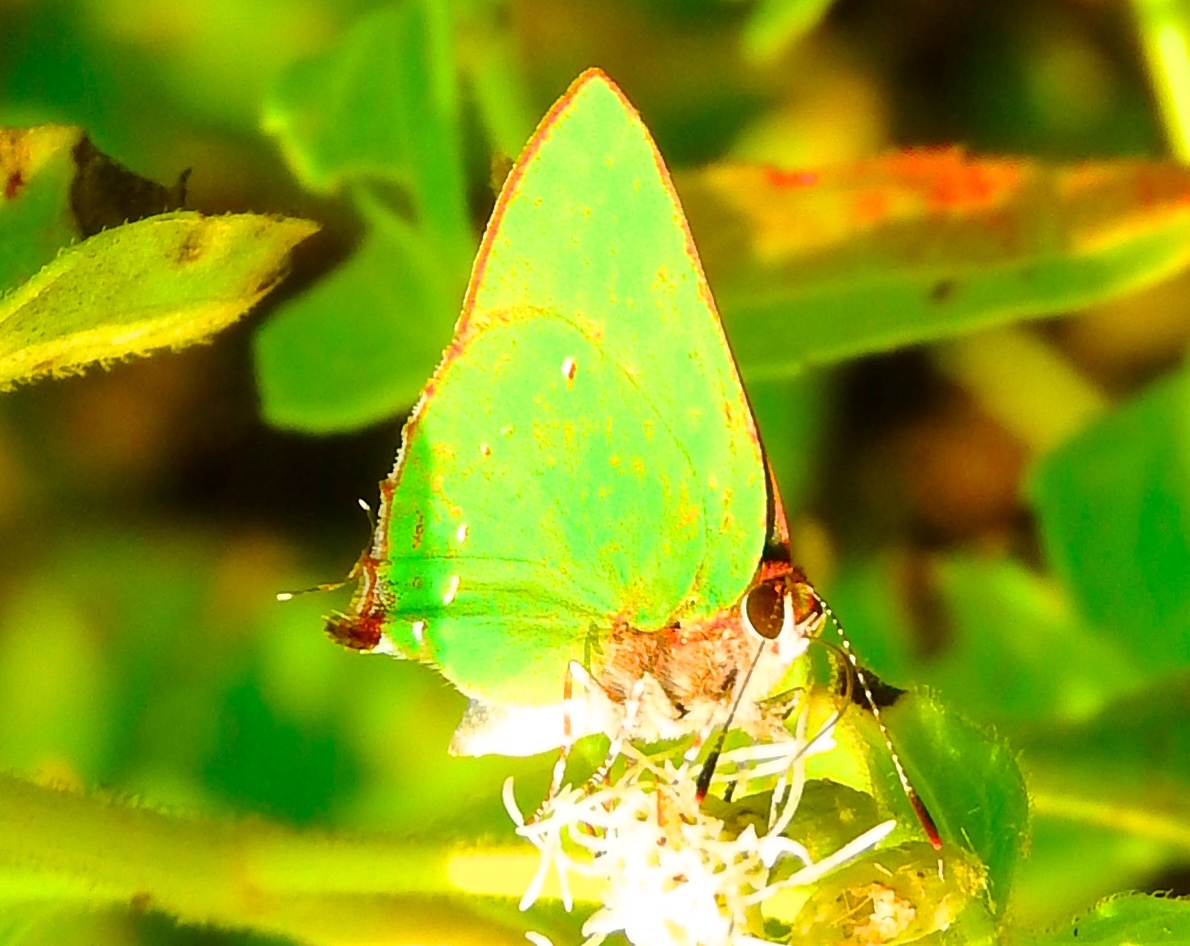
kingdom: Animalia
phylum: Arthropoda
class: Insecta
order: Lepidoptera
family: Lycaenidae
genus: Thecla
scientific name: Thecla herodotus
